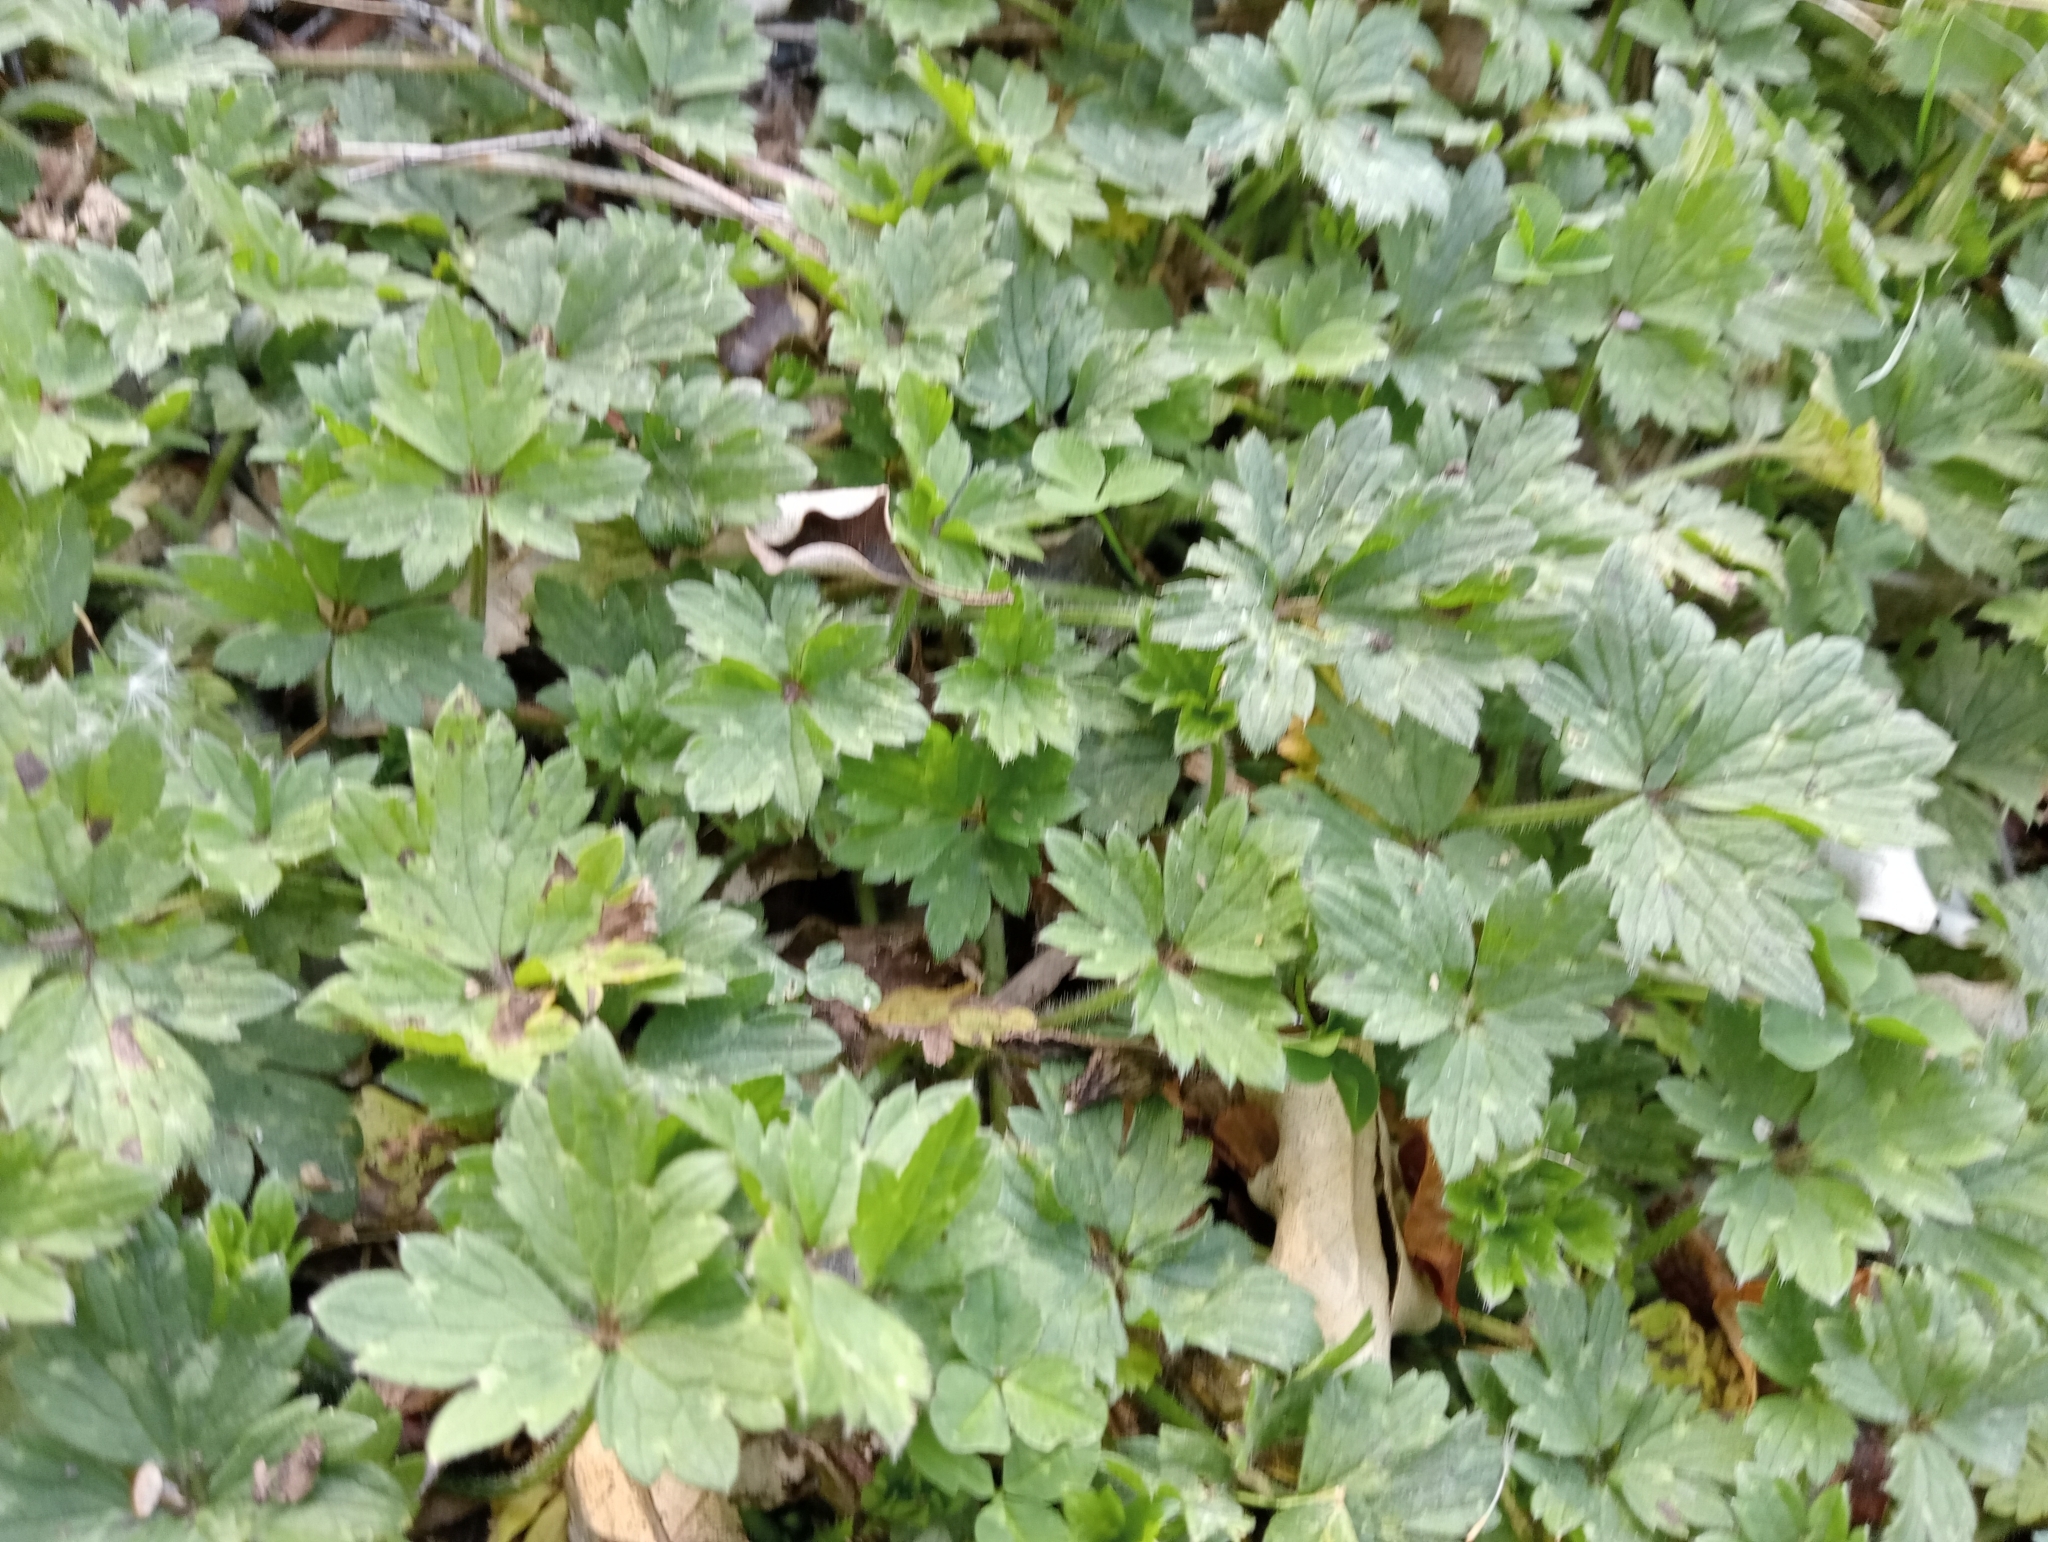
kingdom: Plantae
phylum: Tracheophyta
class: Magnoliopsida
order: Ranunculales
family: Ranunculaceae
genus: Ranunculus
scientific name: Ranunculus repens
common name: Creeping buttercup
